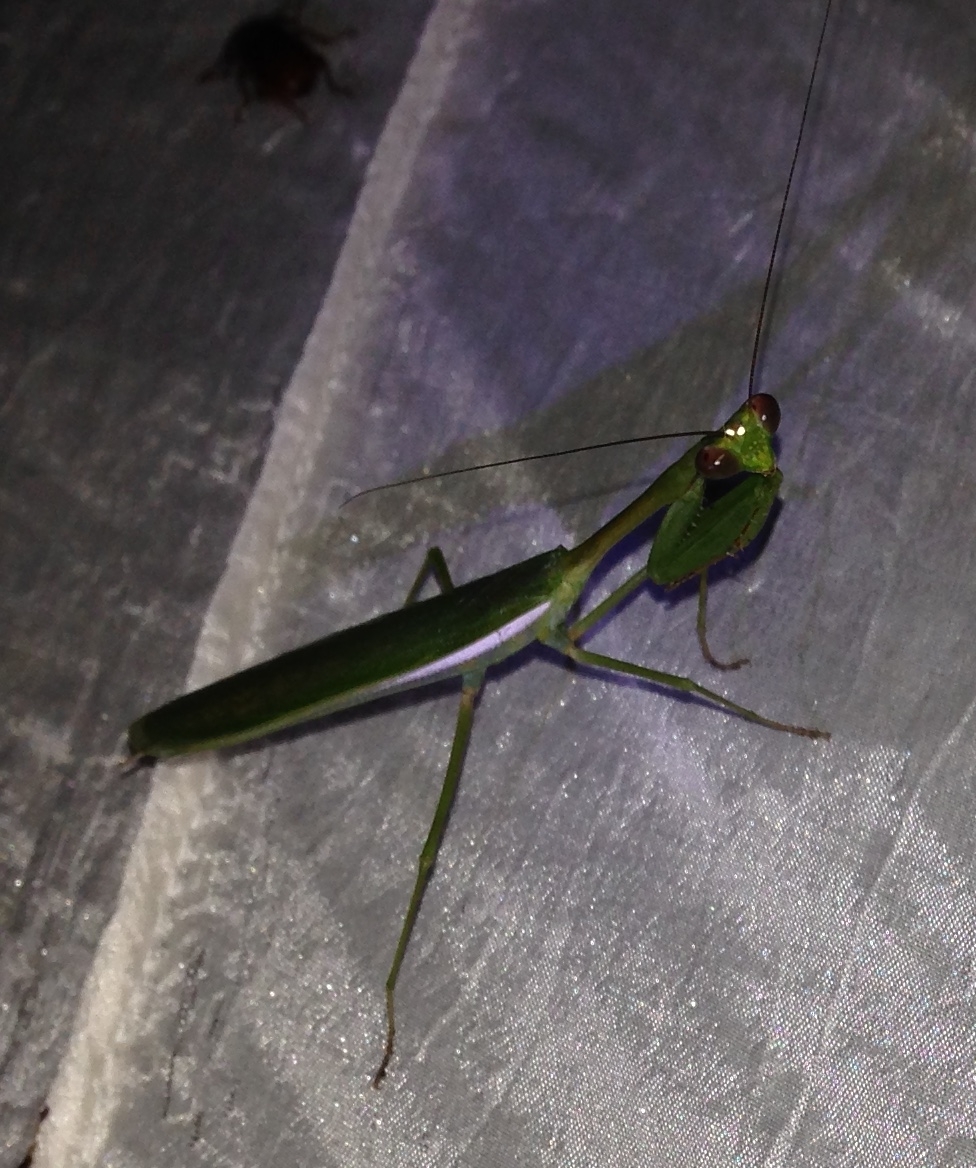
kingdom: Animalia
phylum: Arthropoda
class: Insecta
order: Mantodea
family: Mantidae
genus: Stagmomantis
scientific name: Stagmomantis theophila
